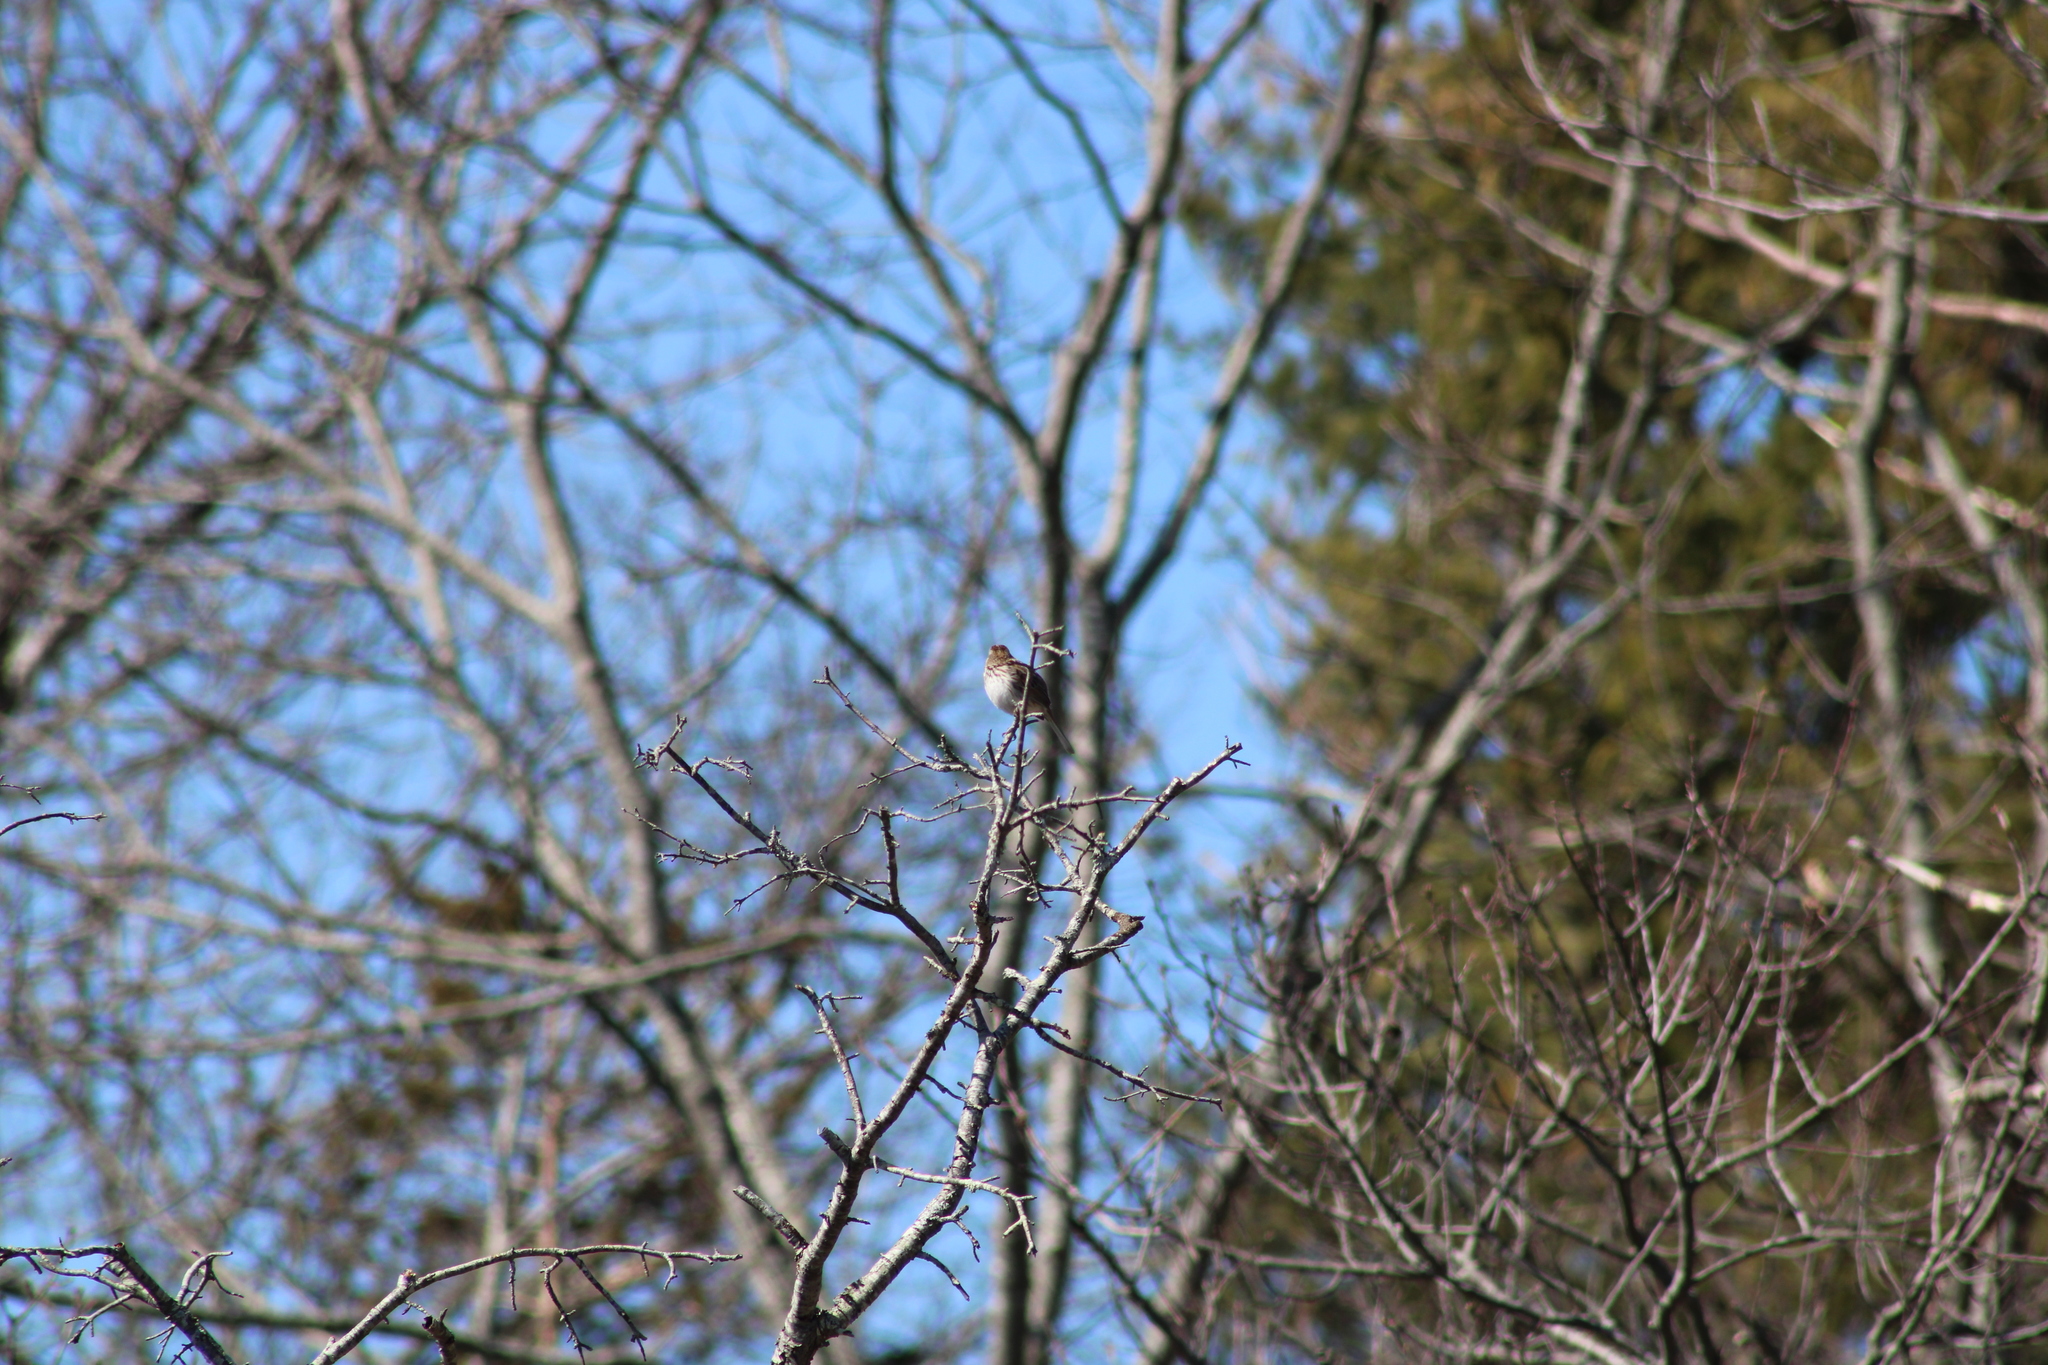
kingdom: Animalia
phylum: Chordata
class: Aves
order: Passeriformes
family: Passerellidae
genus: Melospiza
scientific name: Melospiza melodia
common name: Song sparrow
